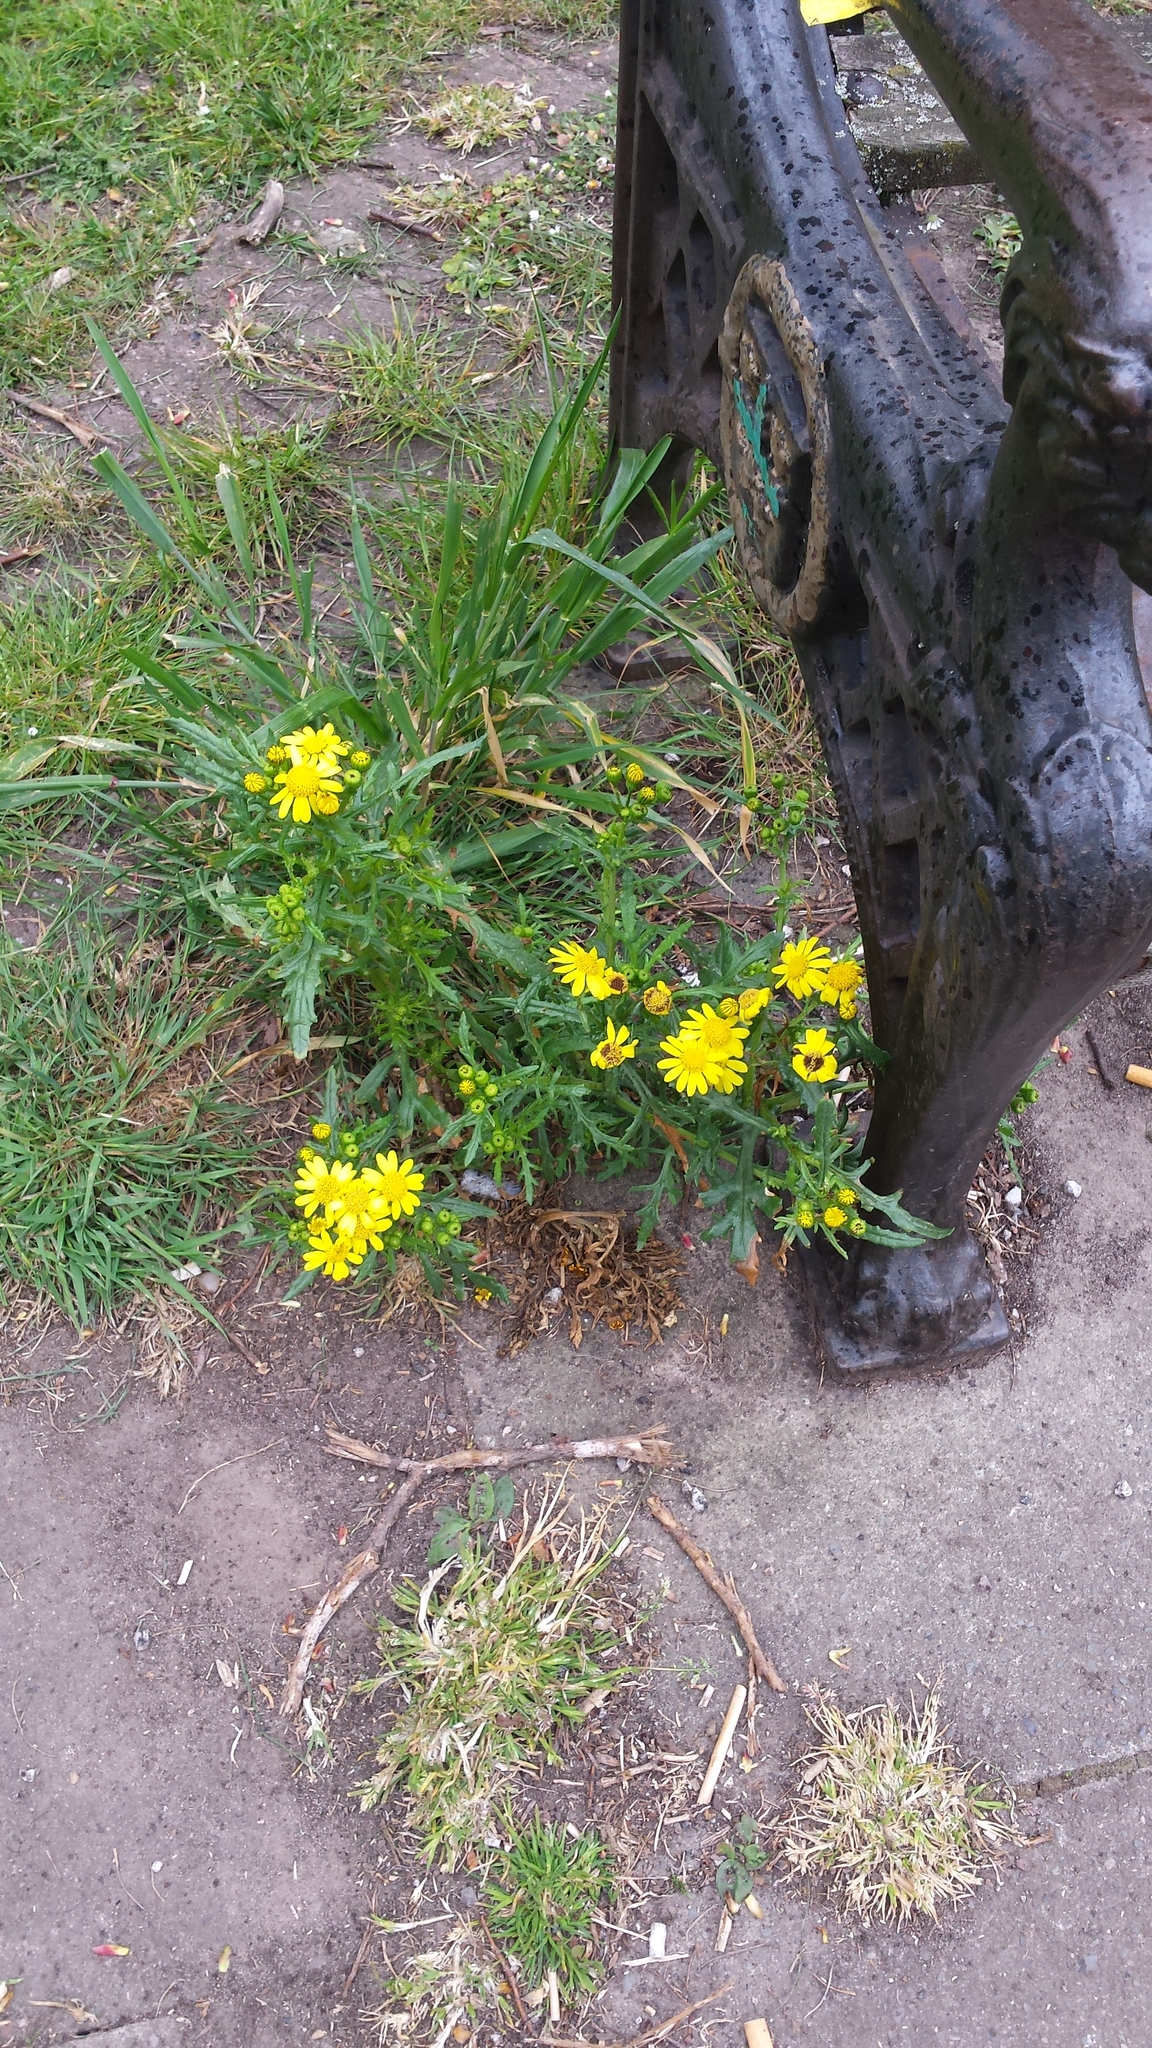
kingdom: Plantae
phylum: Tracheophyta
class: Magnoliopsida
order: Asterales
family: Asteraceae
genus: Senecio
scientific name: Senecio squalidus
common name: Oxford ragwort
